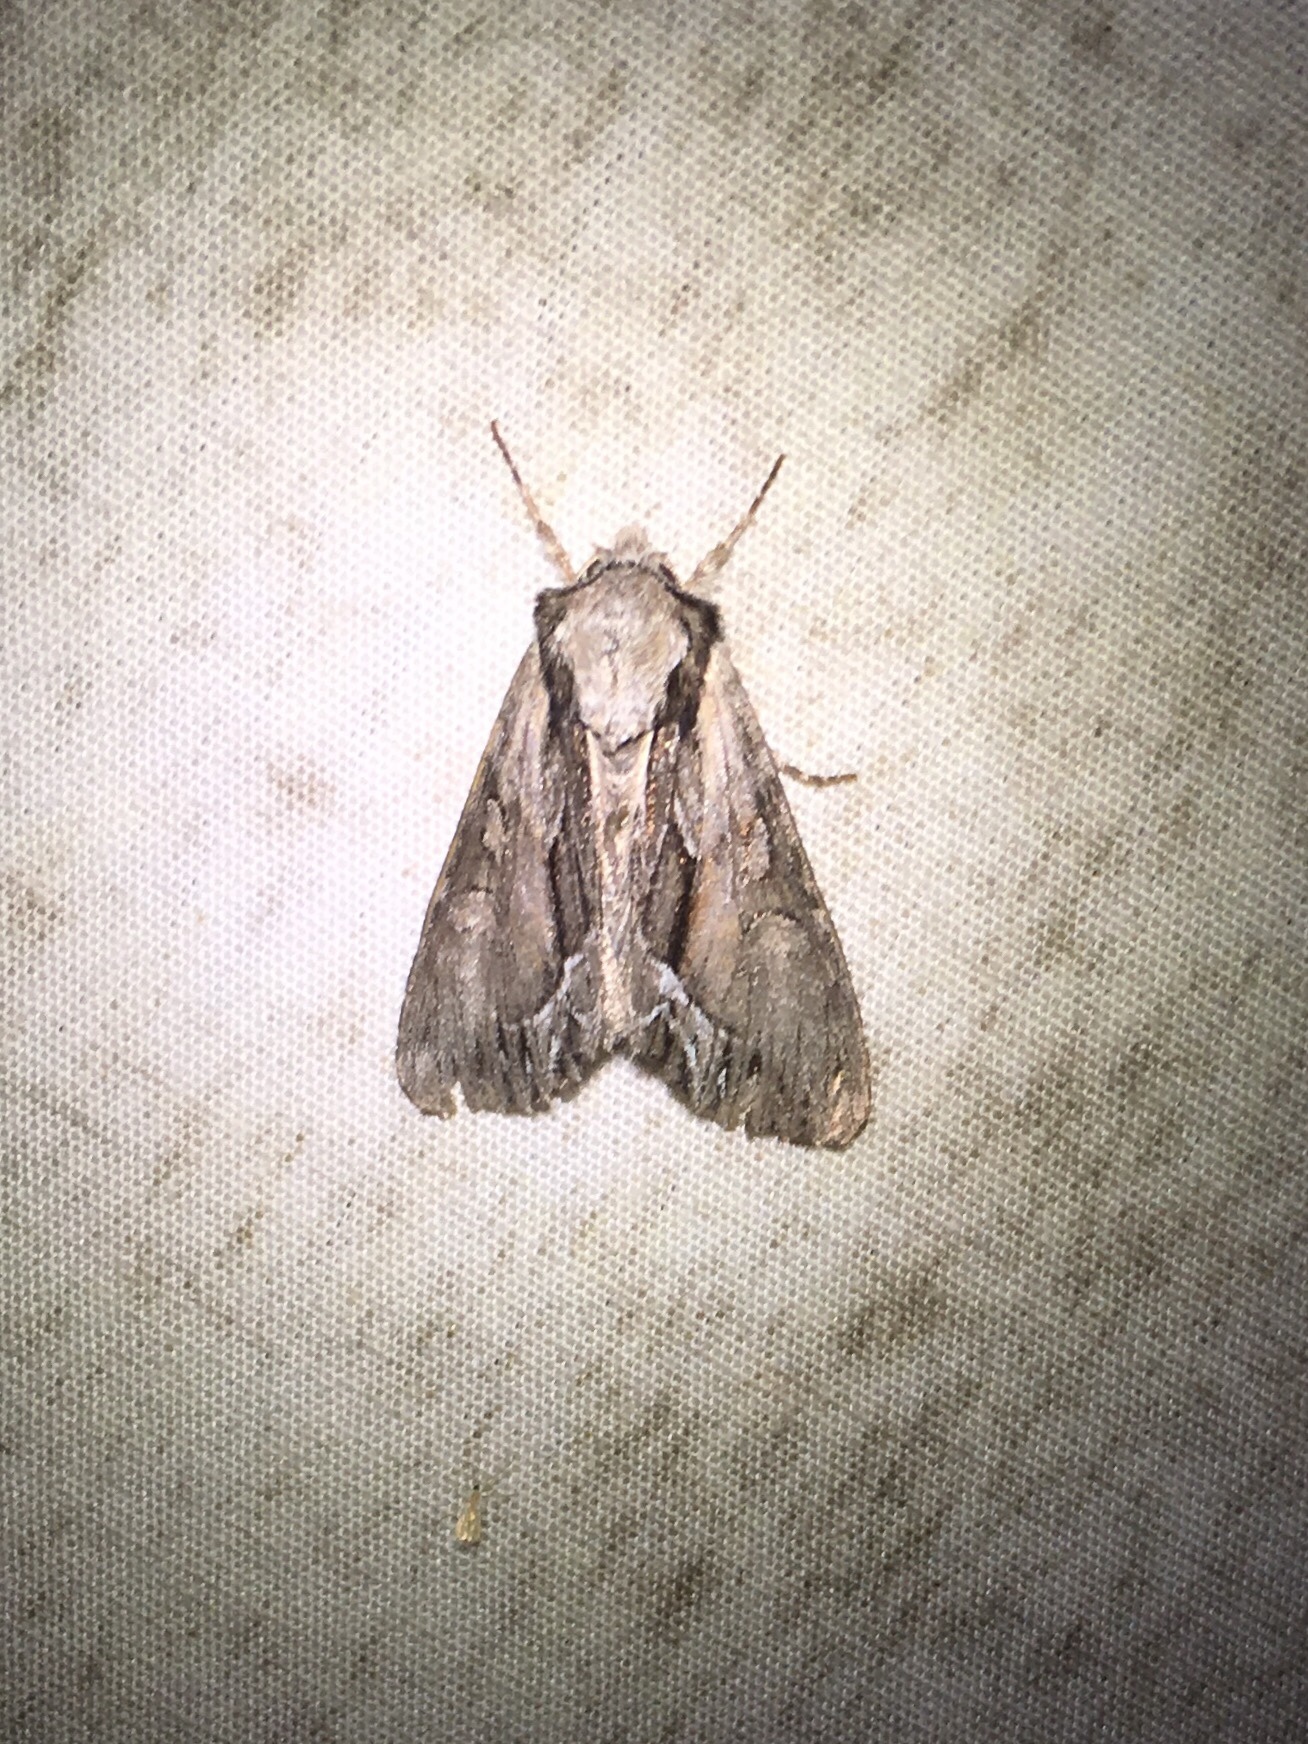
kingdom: Animalia
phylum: Arthropoda
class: Insecta
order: Lepidoptera
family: Noctuidae
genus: Hyppa
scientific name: Hyppa xylinoides
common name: Common hyppa moth
